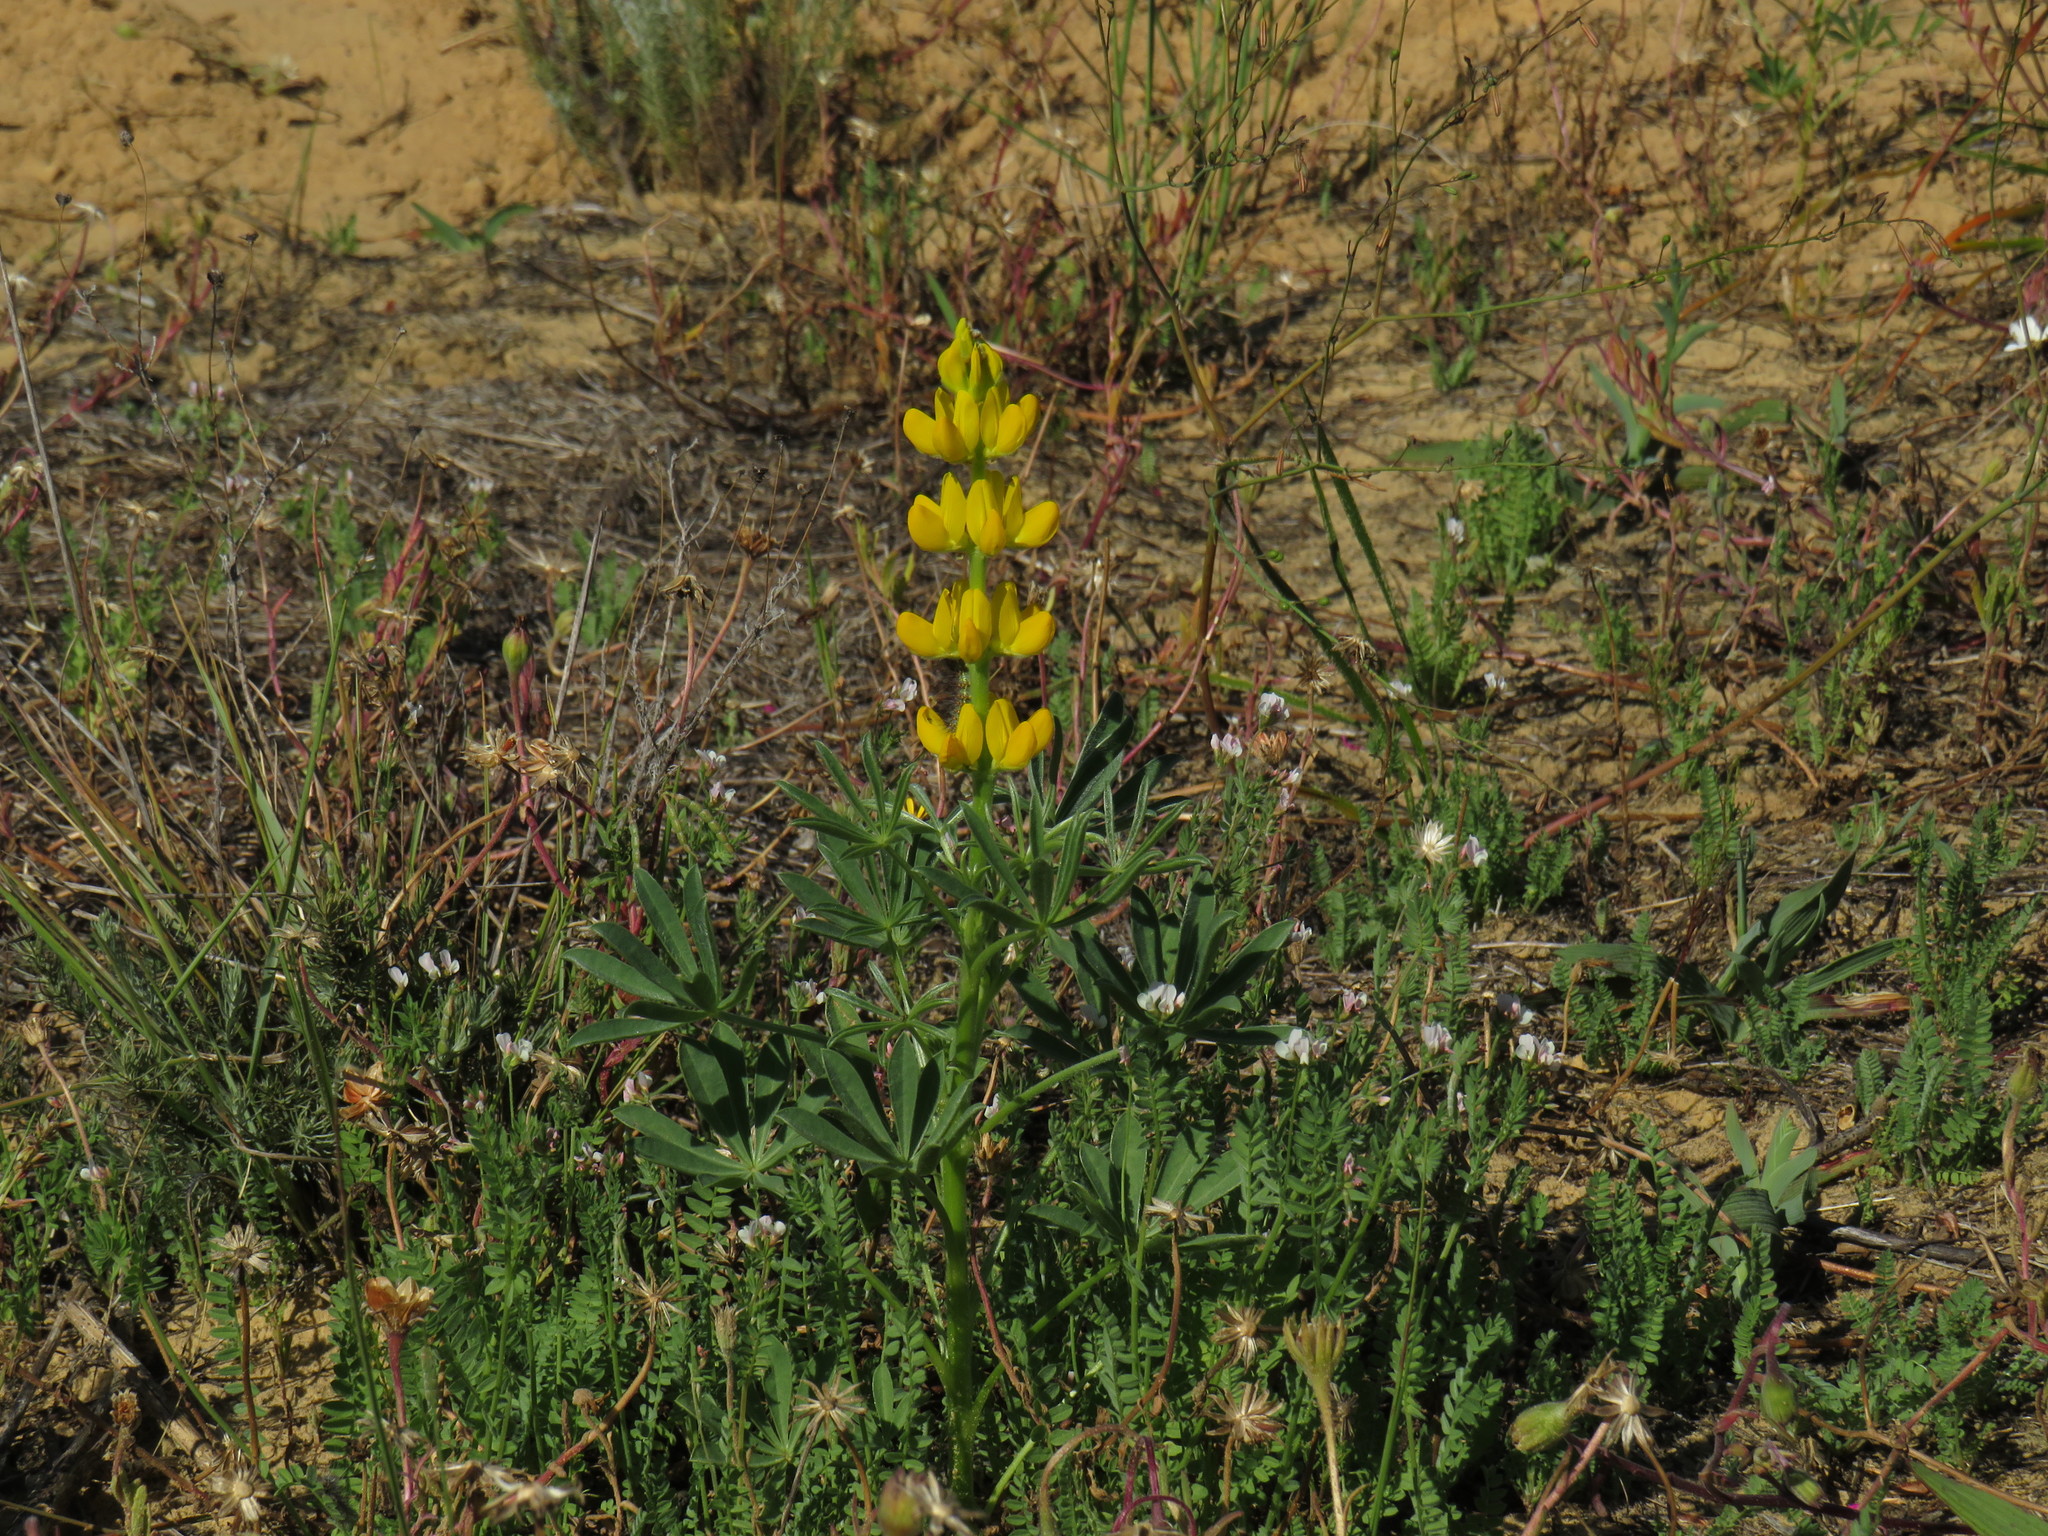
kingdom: Plantae
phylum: Tracheophyta
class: Magnoliopsida
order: Fabales
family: Fabaceae
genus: Lupinus
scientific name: Lupinus luteus
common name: European yellow lupine
